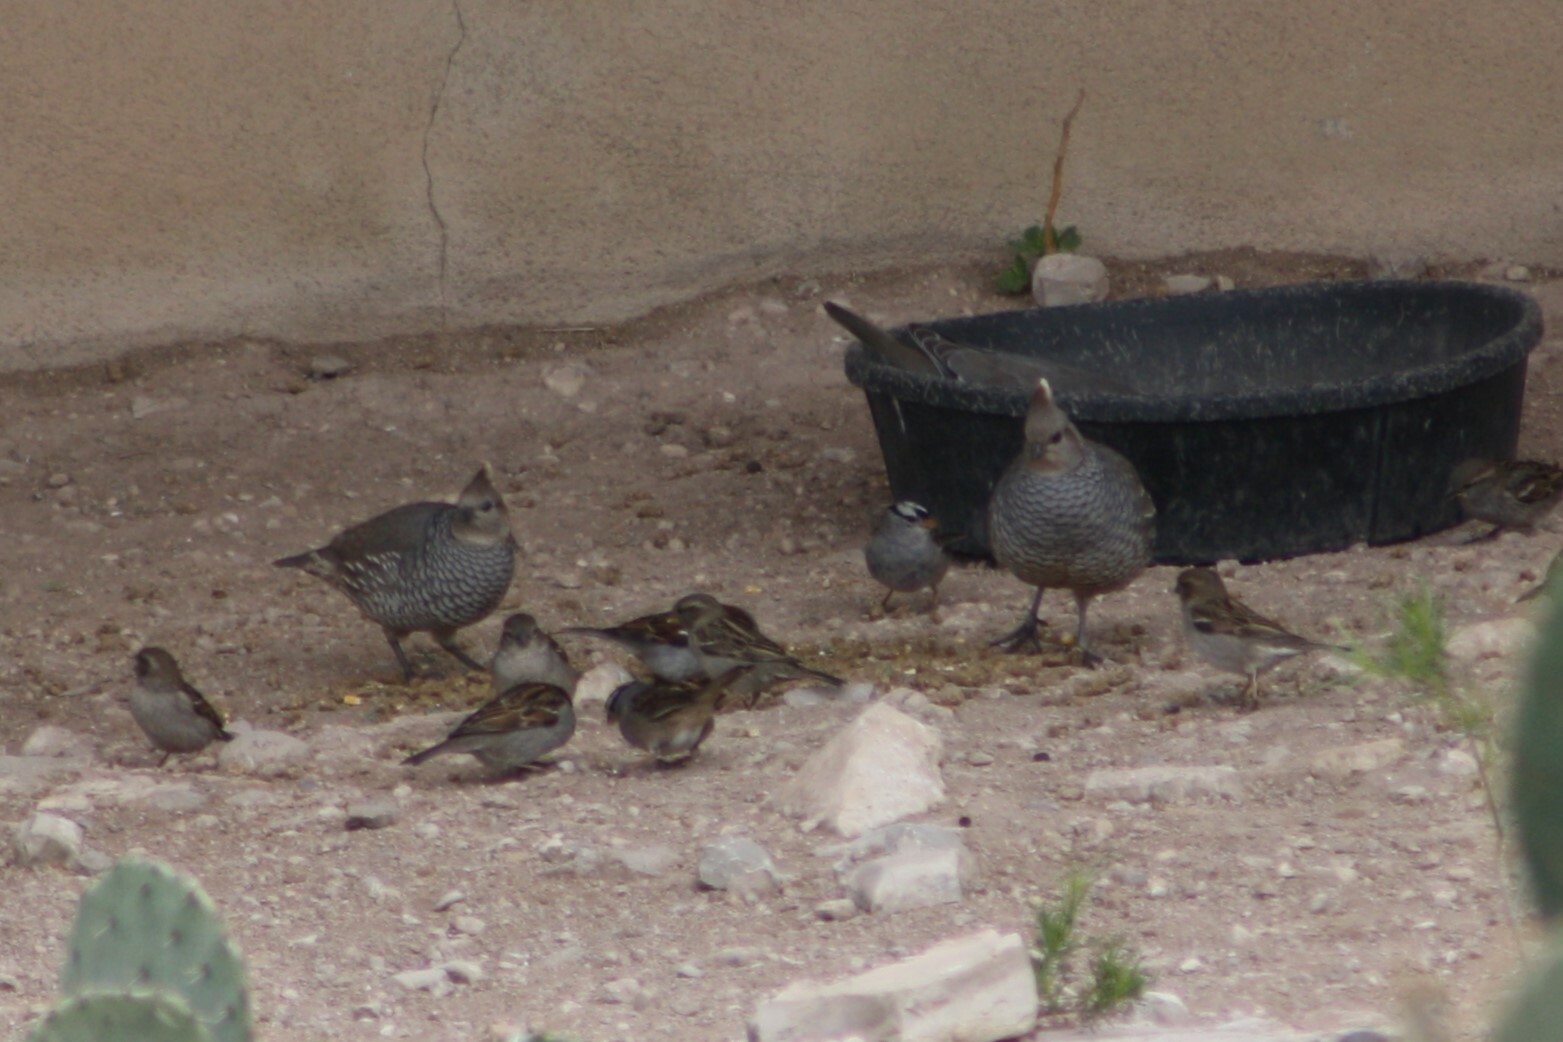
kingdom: Animalia
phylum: Chordata
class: Aves
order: Galliformes
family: Odontophoridae
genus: Callipepla
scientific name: Callipepla squamata
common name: Scaled quail
